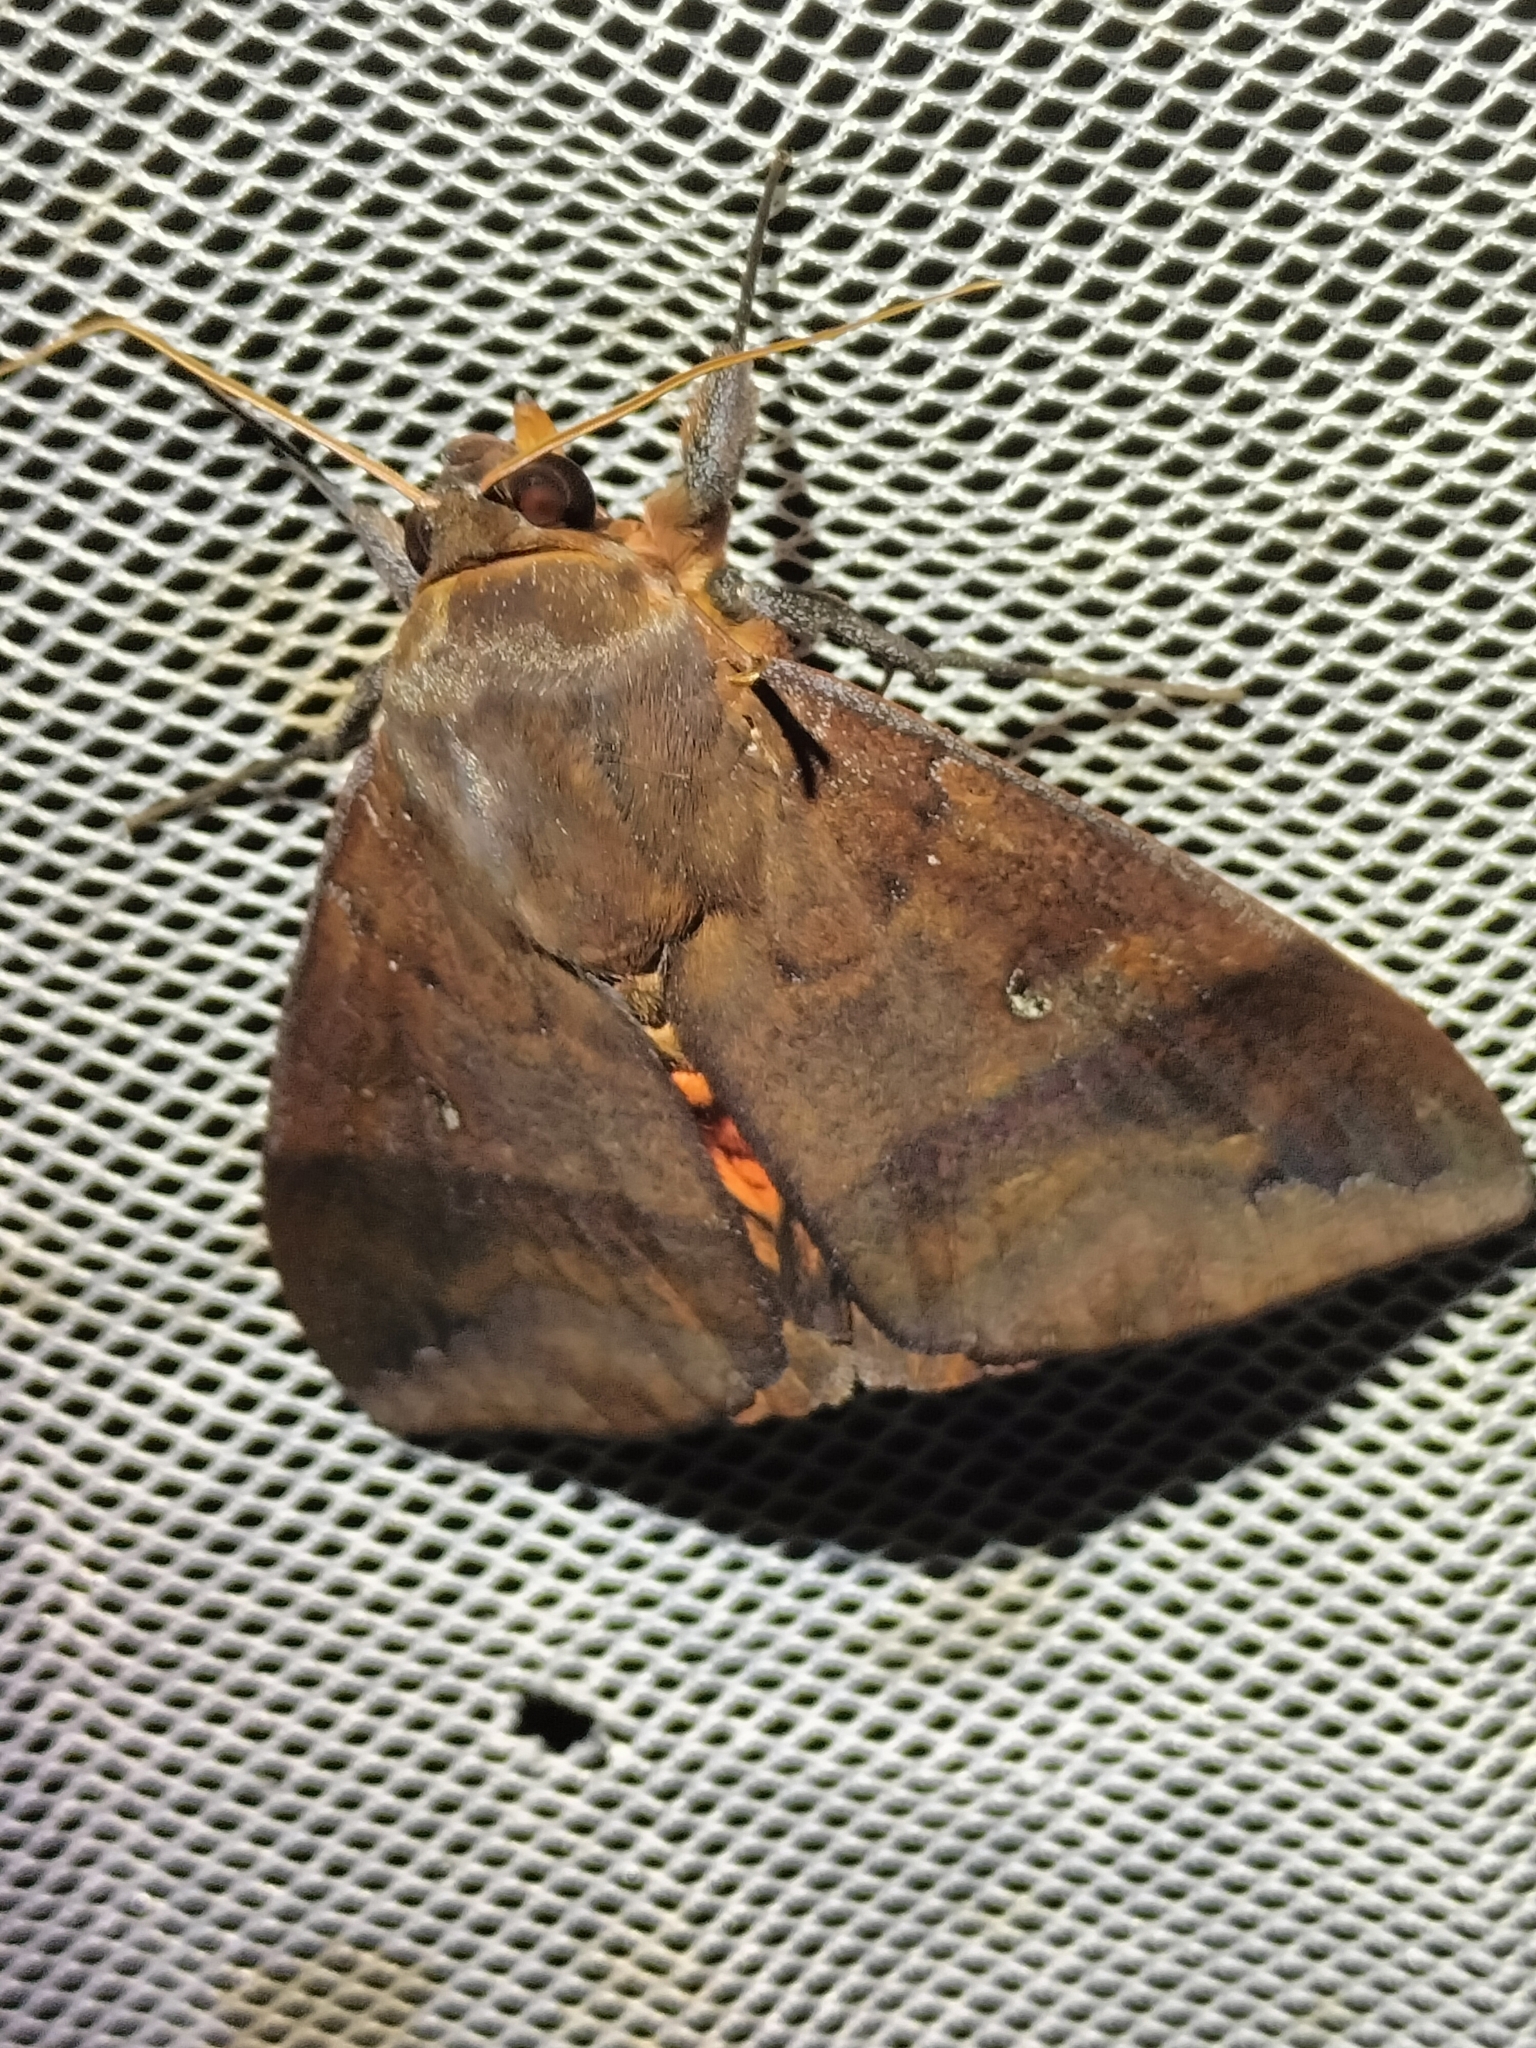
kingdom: Animalia
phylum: Arthropoda
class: Insecta
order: Lepidoptera
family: Erebidae
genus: Thyas
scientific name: Thyas miniacea
